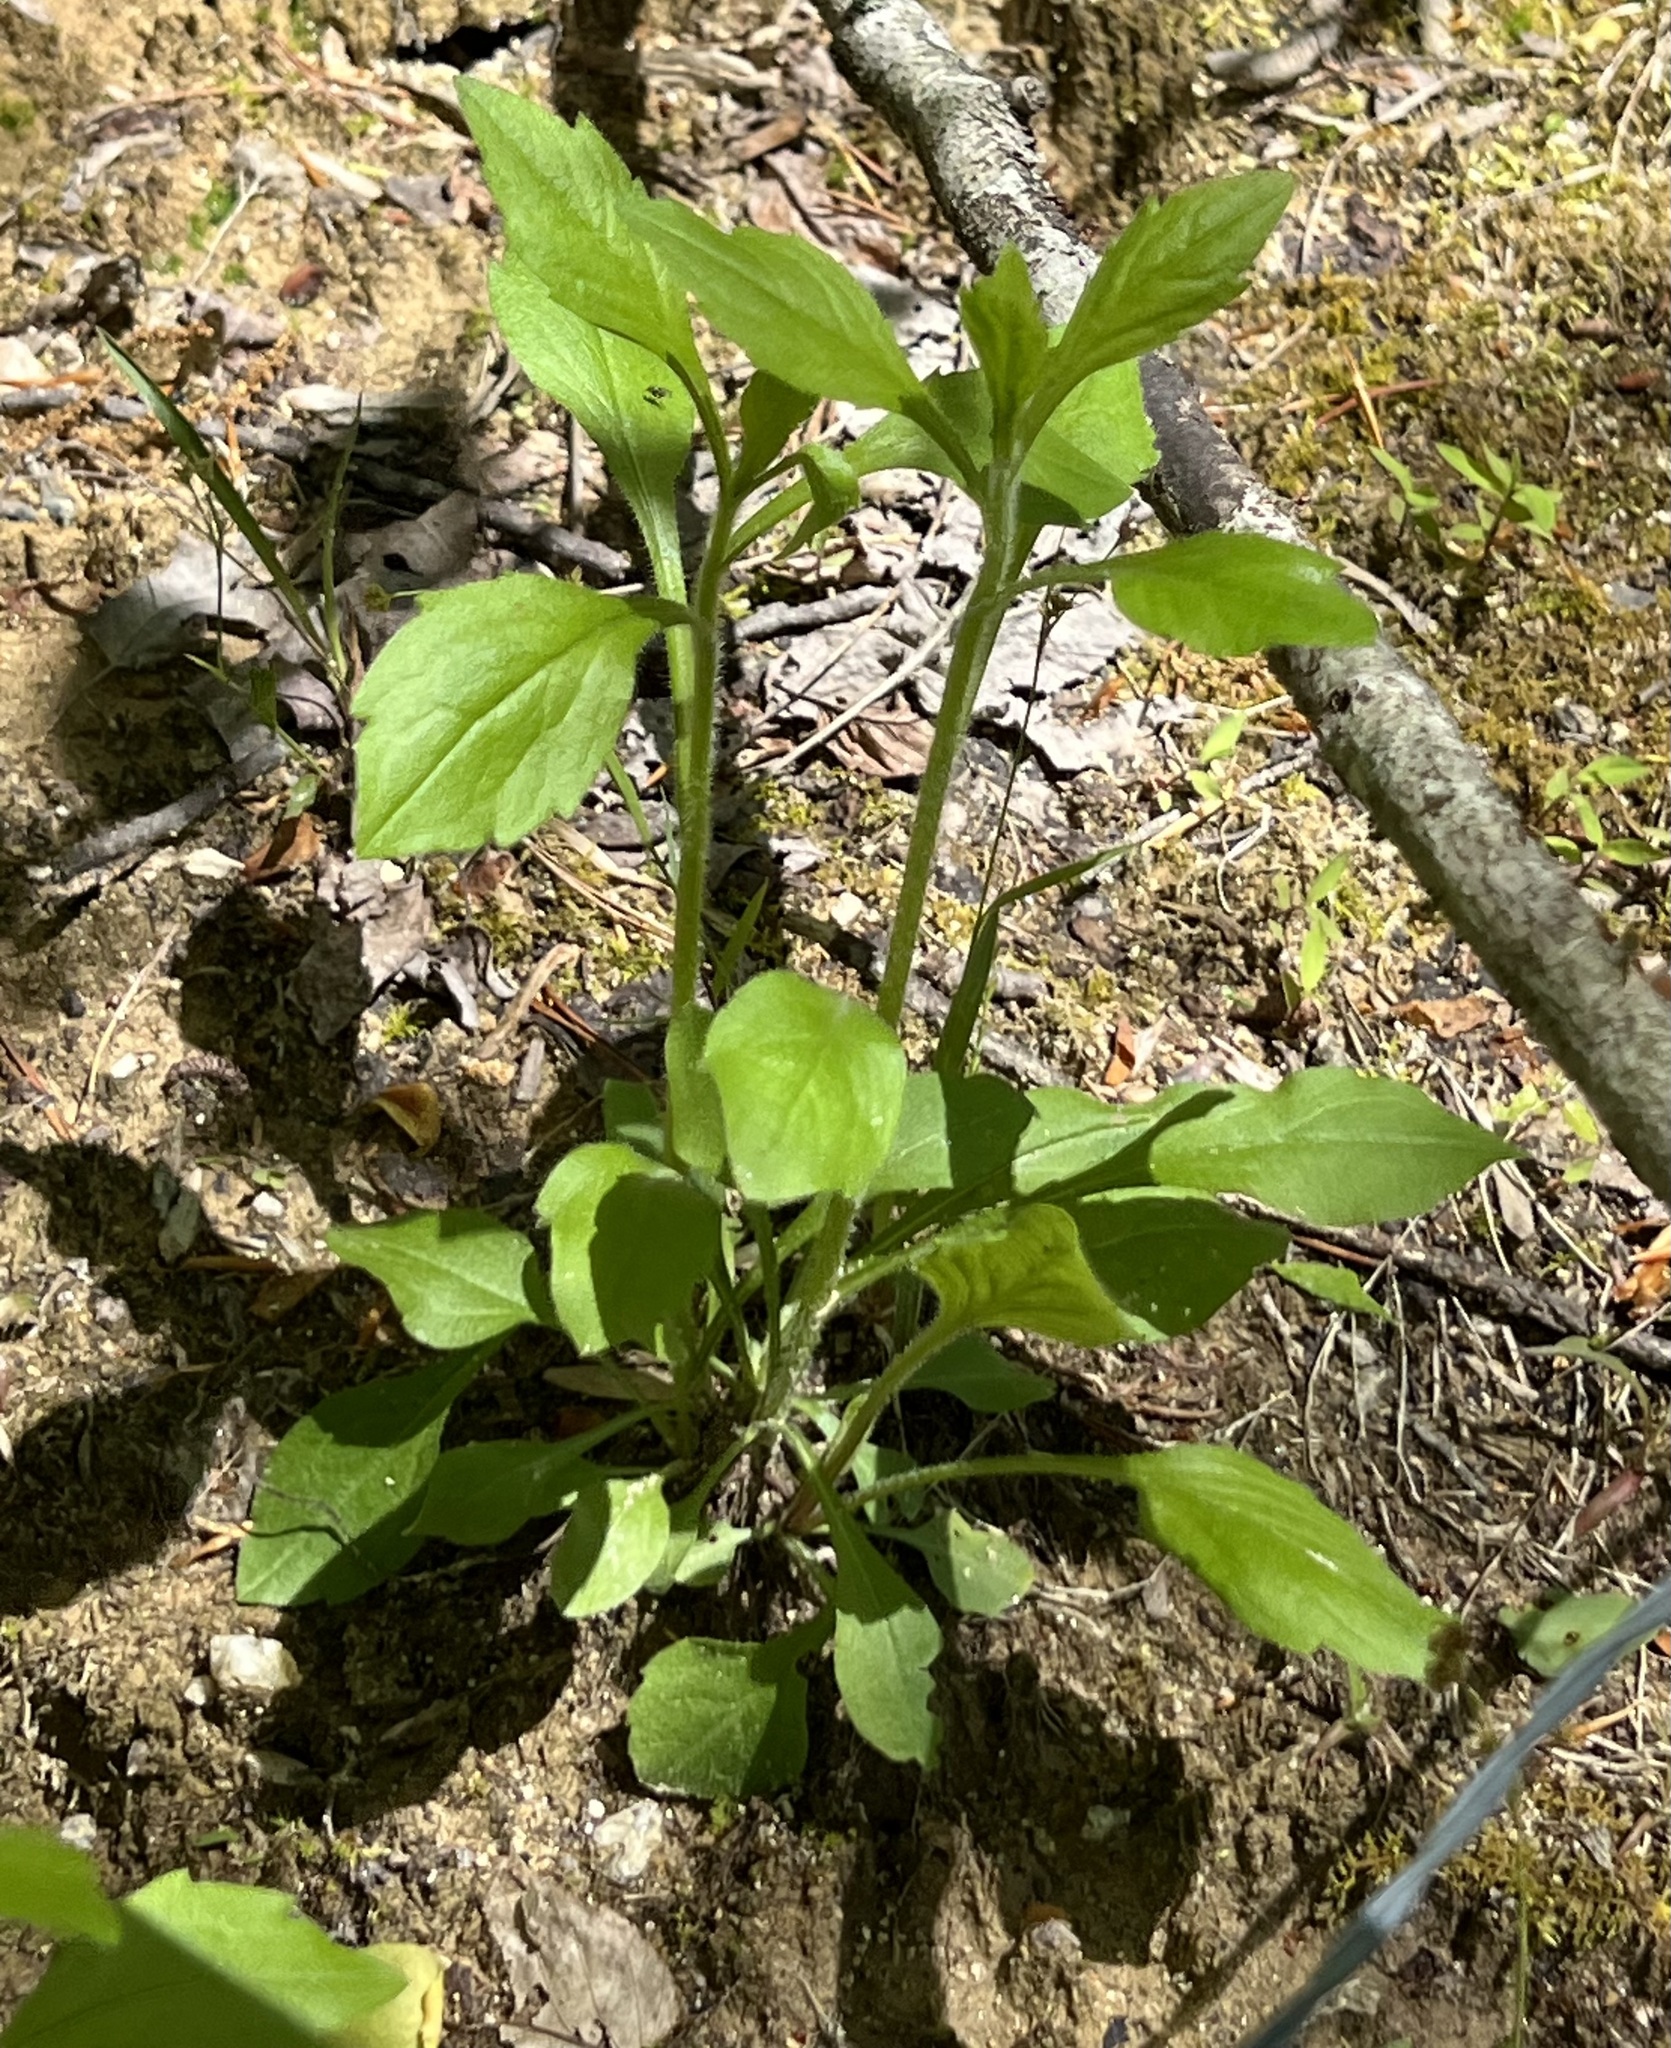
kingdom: Plantae
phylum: Tracheophyta
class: Magnoliopsida
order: Asterales
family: Asteraceae
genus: Erigeron
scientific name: Erigeron annuus
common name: Tall fleabane
